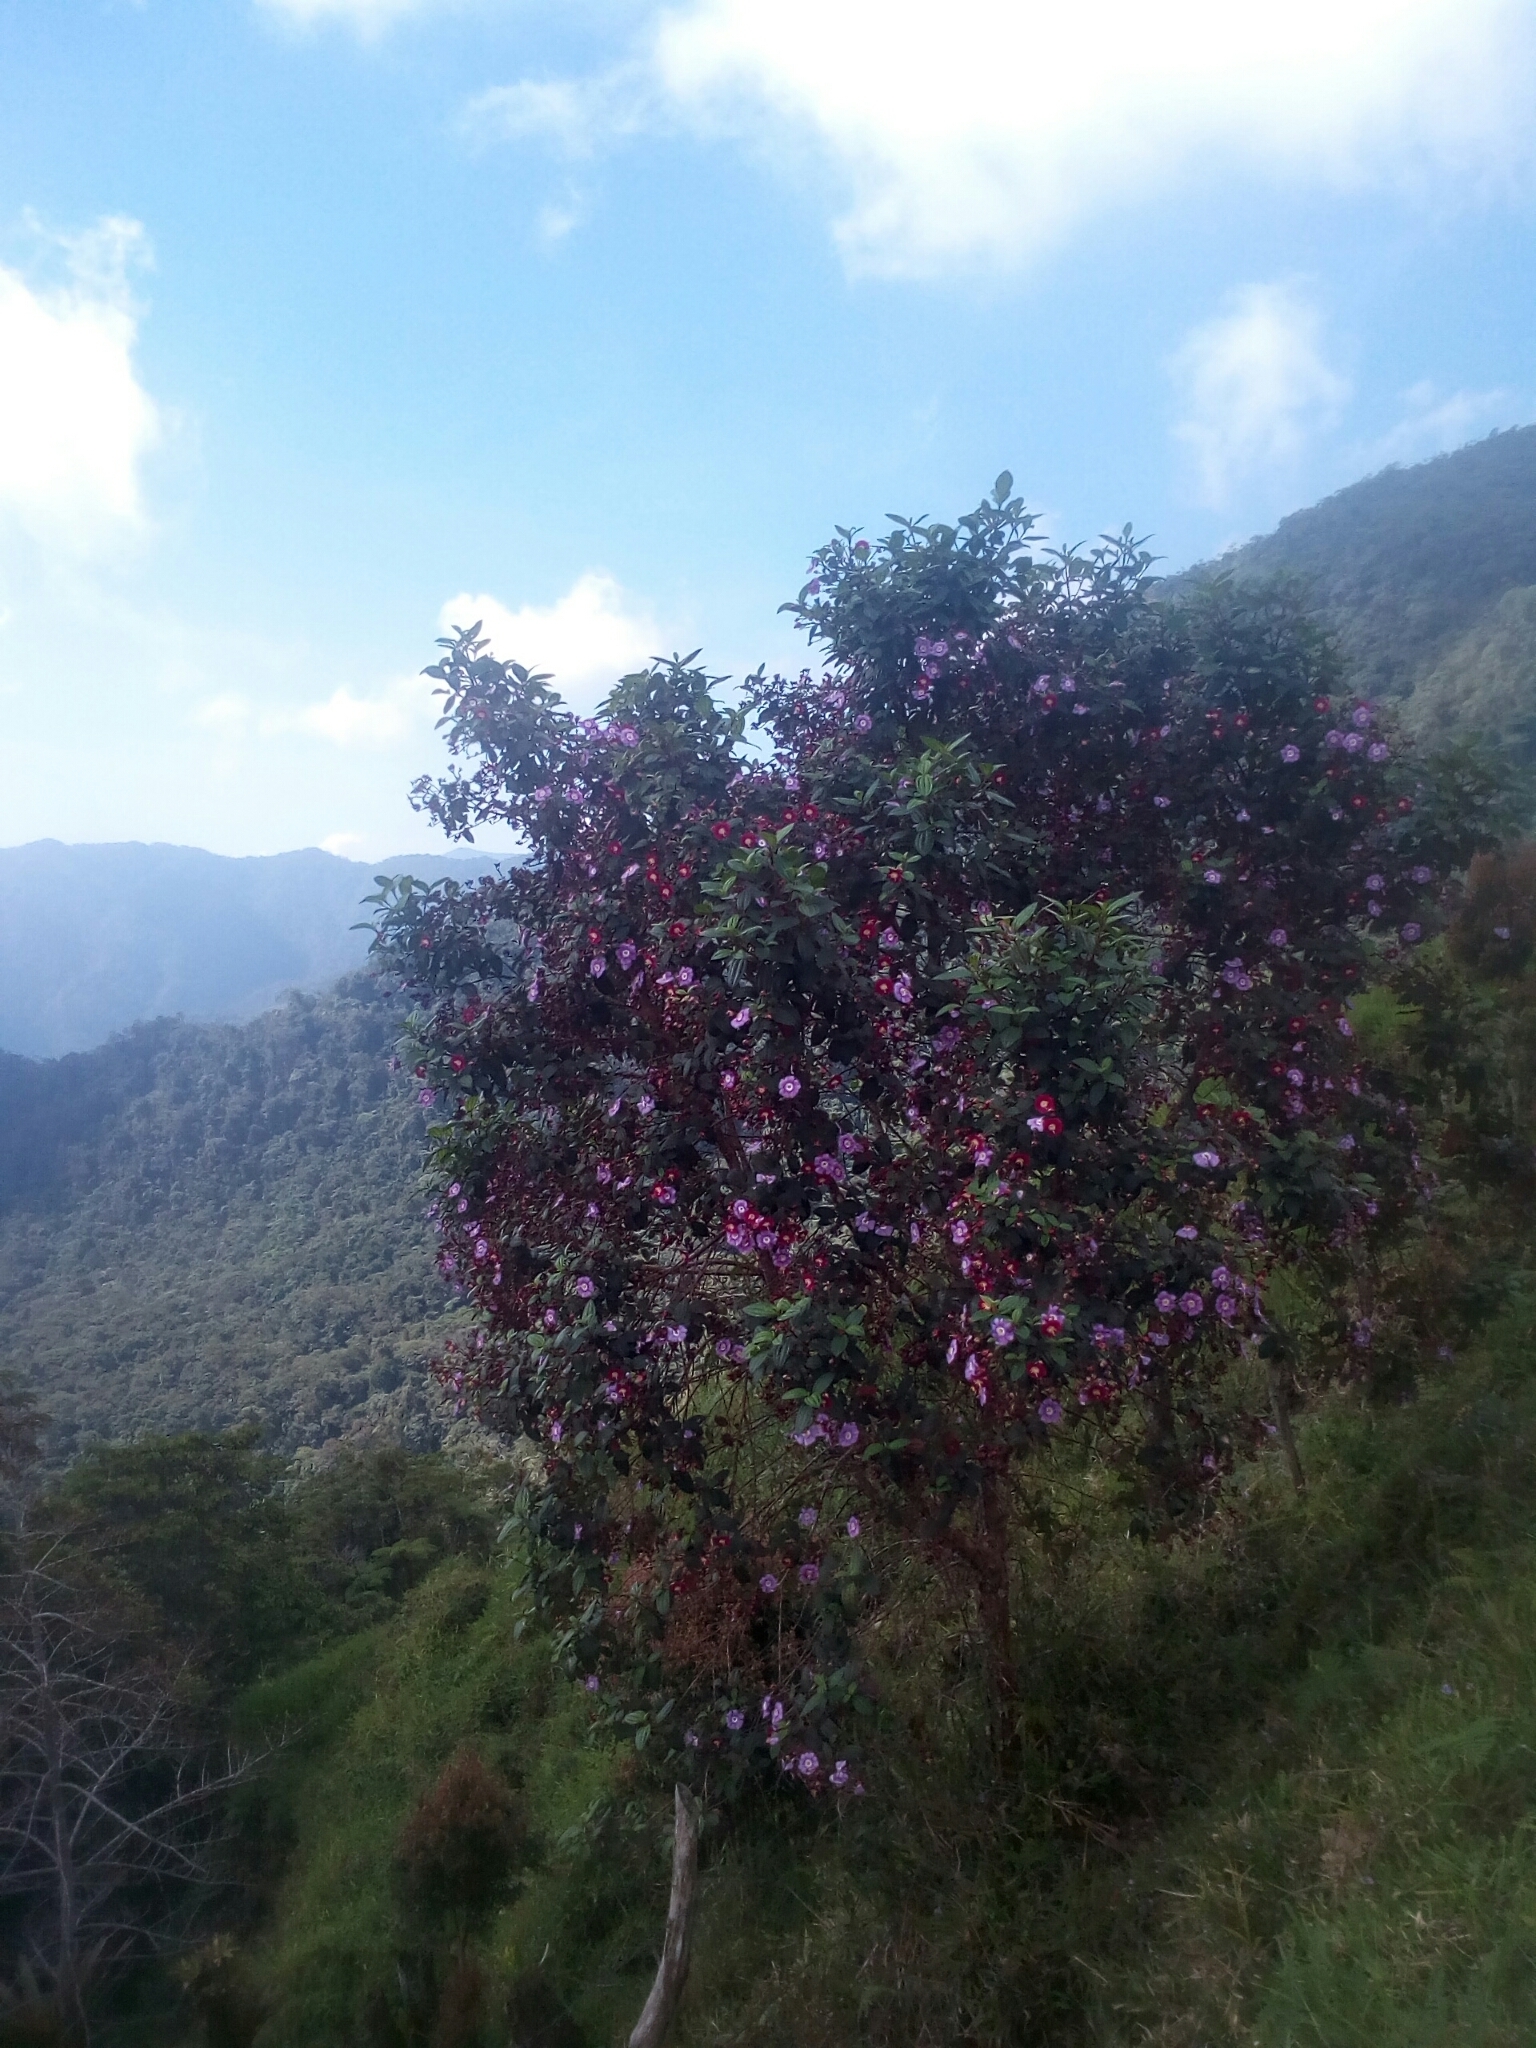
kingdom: Plantae
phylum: Tracheophyta
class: Magnoliopsida
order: Myrtales
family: Melastomataceae
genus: Andesanthus
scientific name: Andesanthus lepidotus
